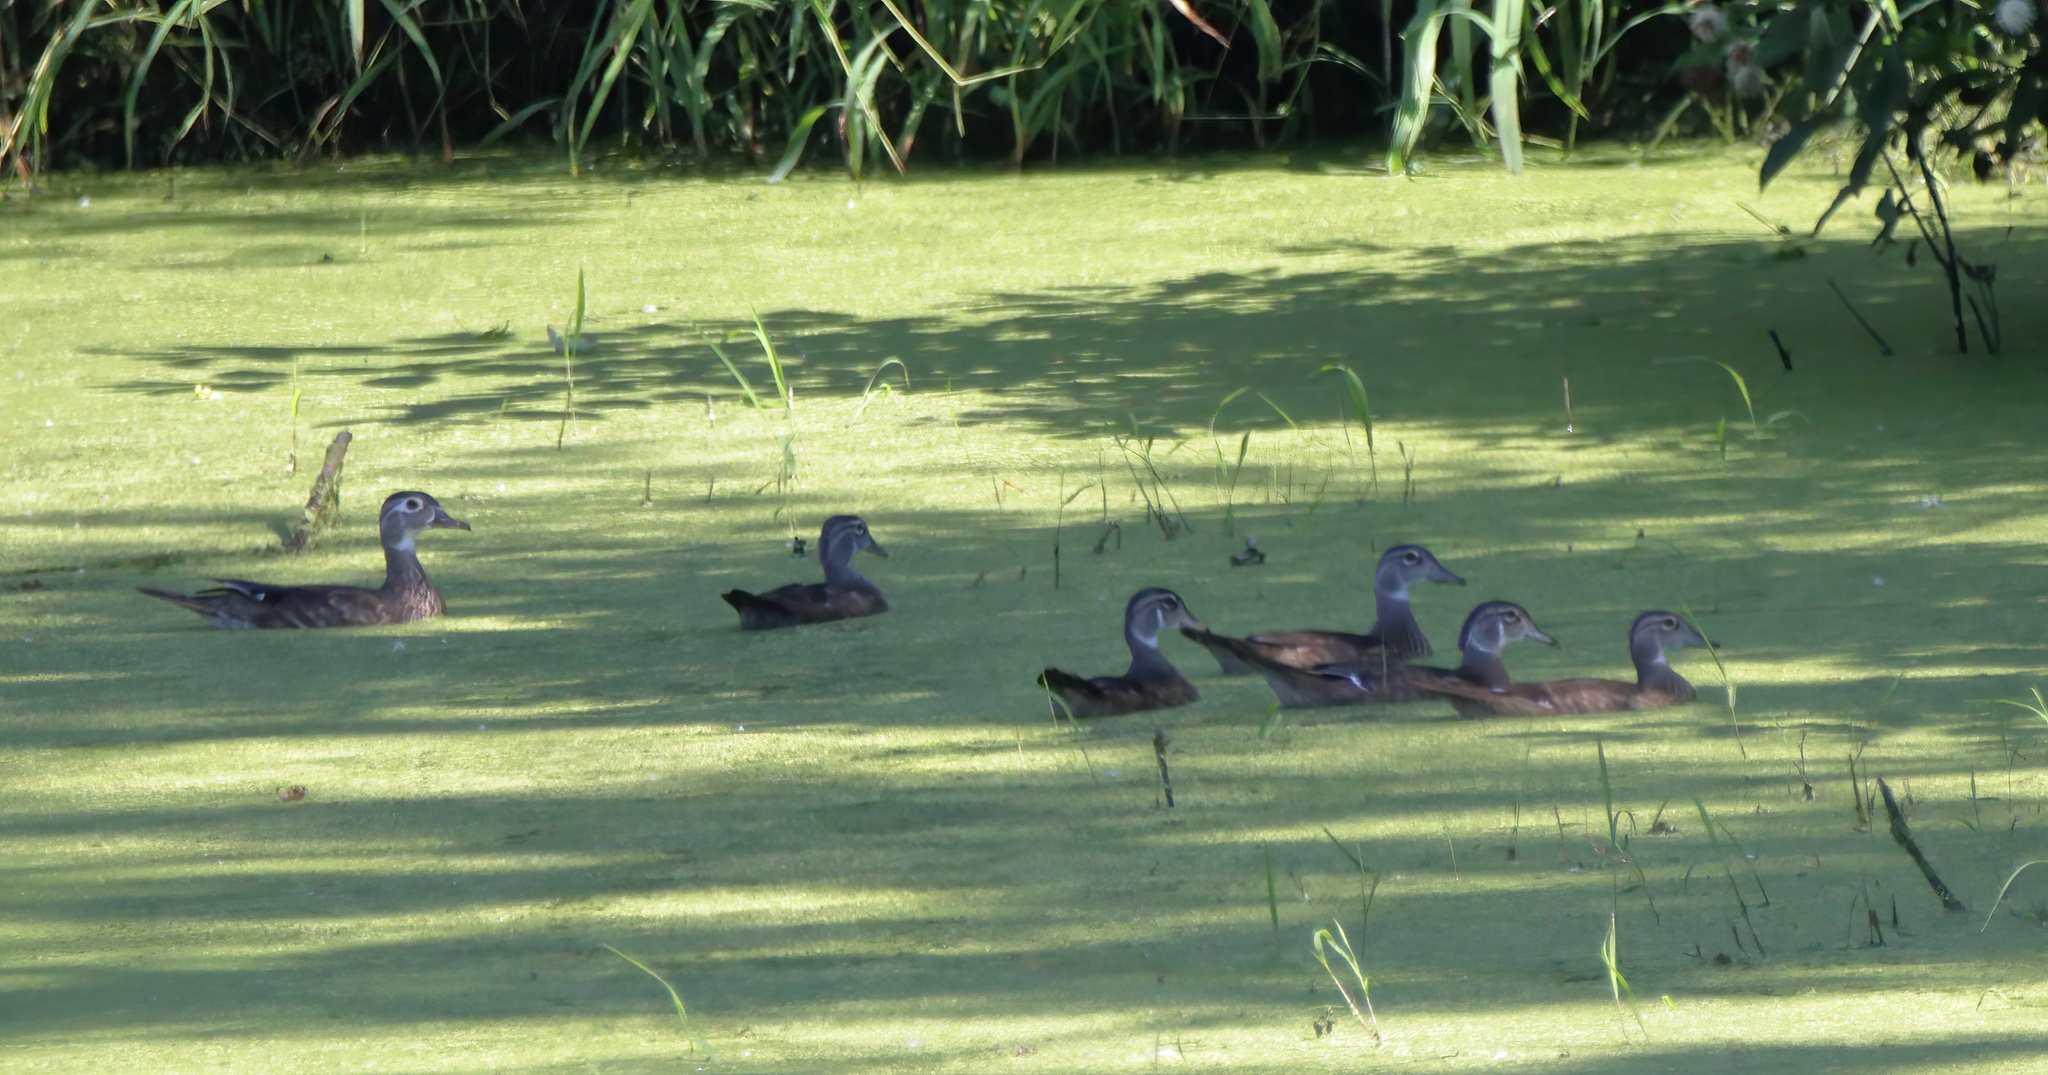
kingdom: Animalia
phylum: Chordata
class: Aves
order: Anseriformes
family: Anatidae
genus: Aix
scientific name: Aix sponsa
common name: Wood duck
